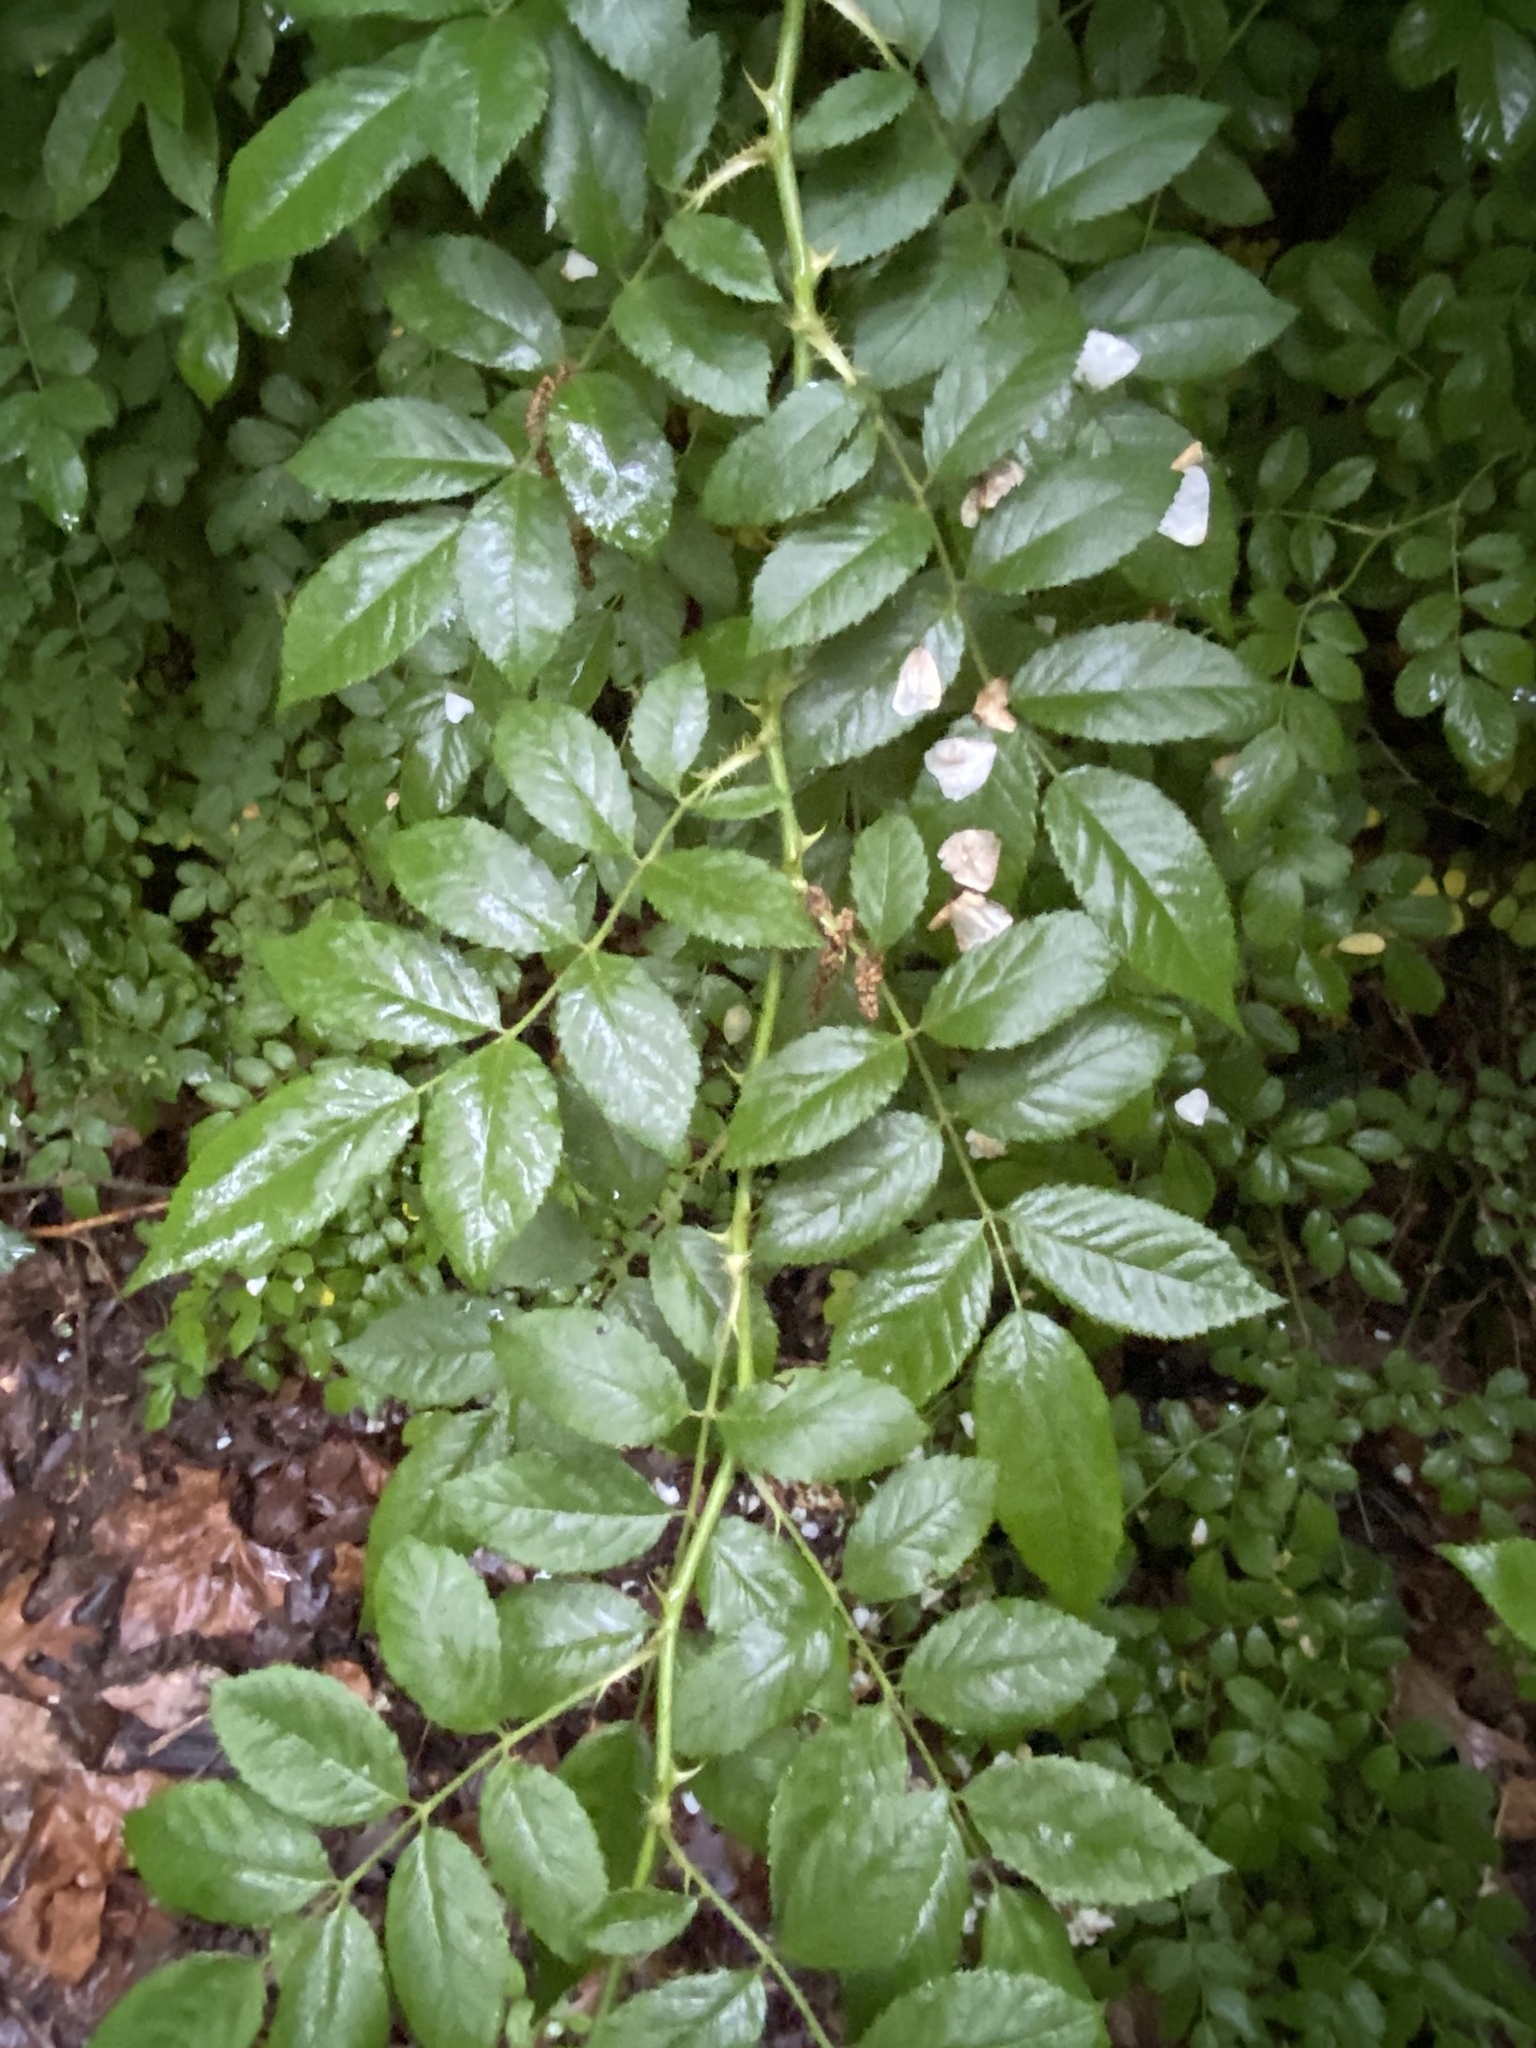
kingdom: Plantae
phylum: Tracheophyta
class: Magnoliopsida
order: Rosales
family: Rosaceae
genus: Rosa
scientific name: Rosa multiflora
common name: Multiflora rose
